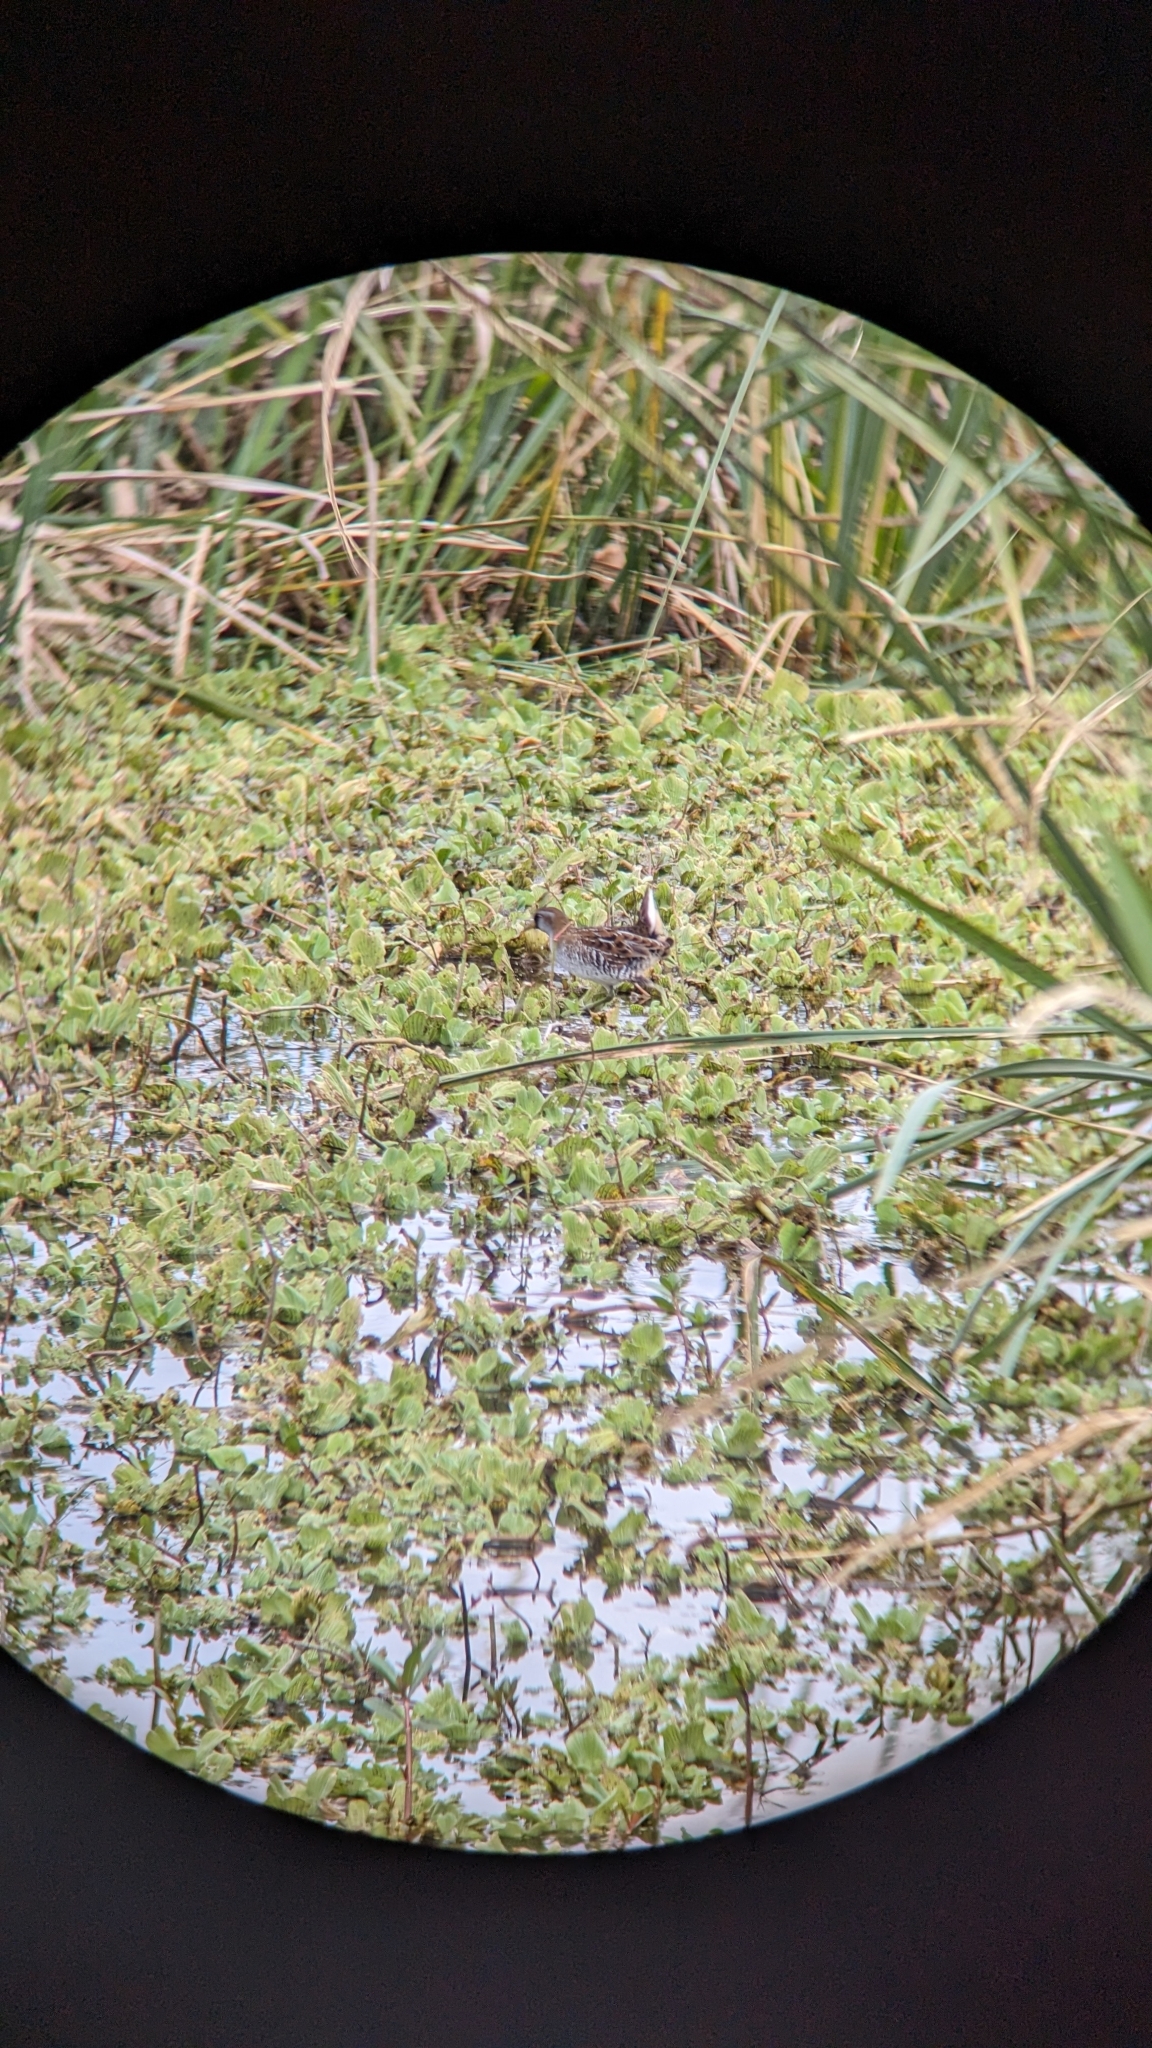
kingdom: Animalia
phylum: Chordata
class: Aves
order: Gruiformes
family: Rallidae
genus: Porzana
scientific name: Porzana carolina
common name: Sora
